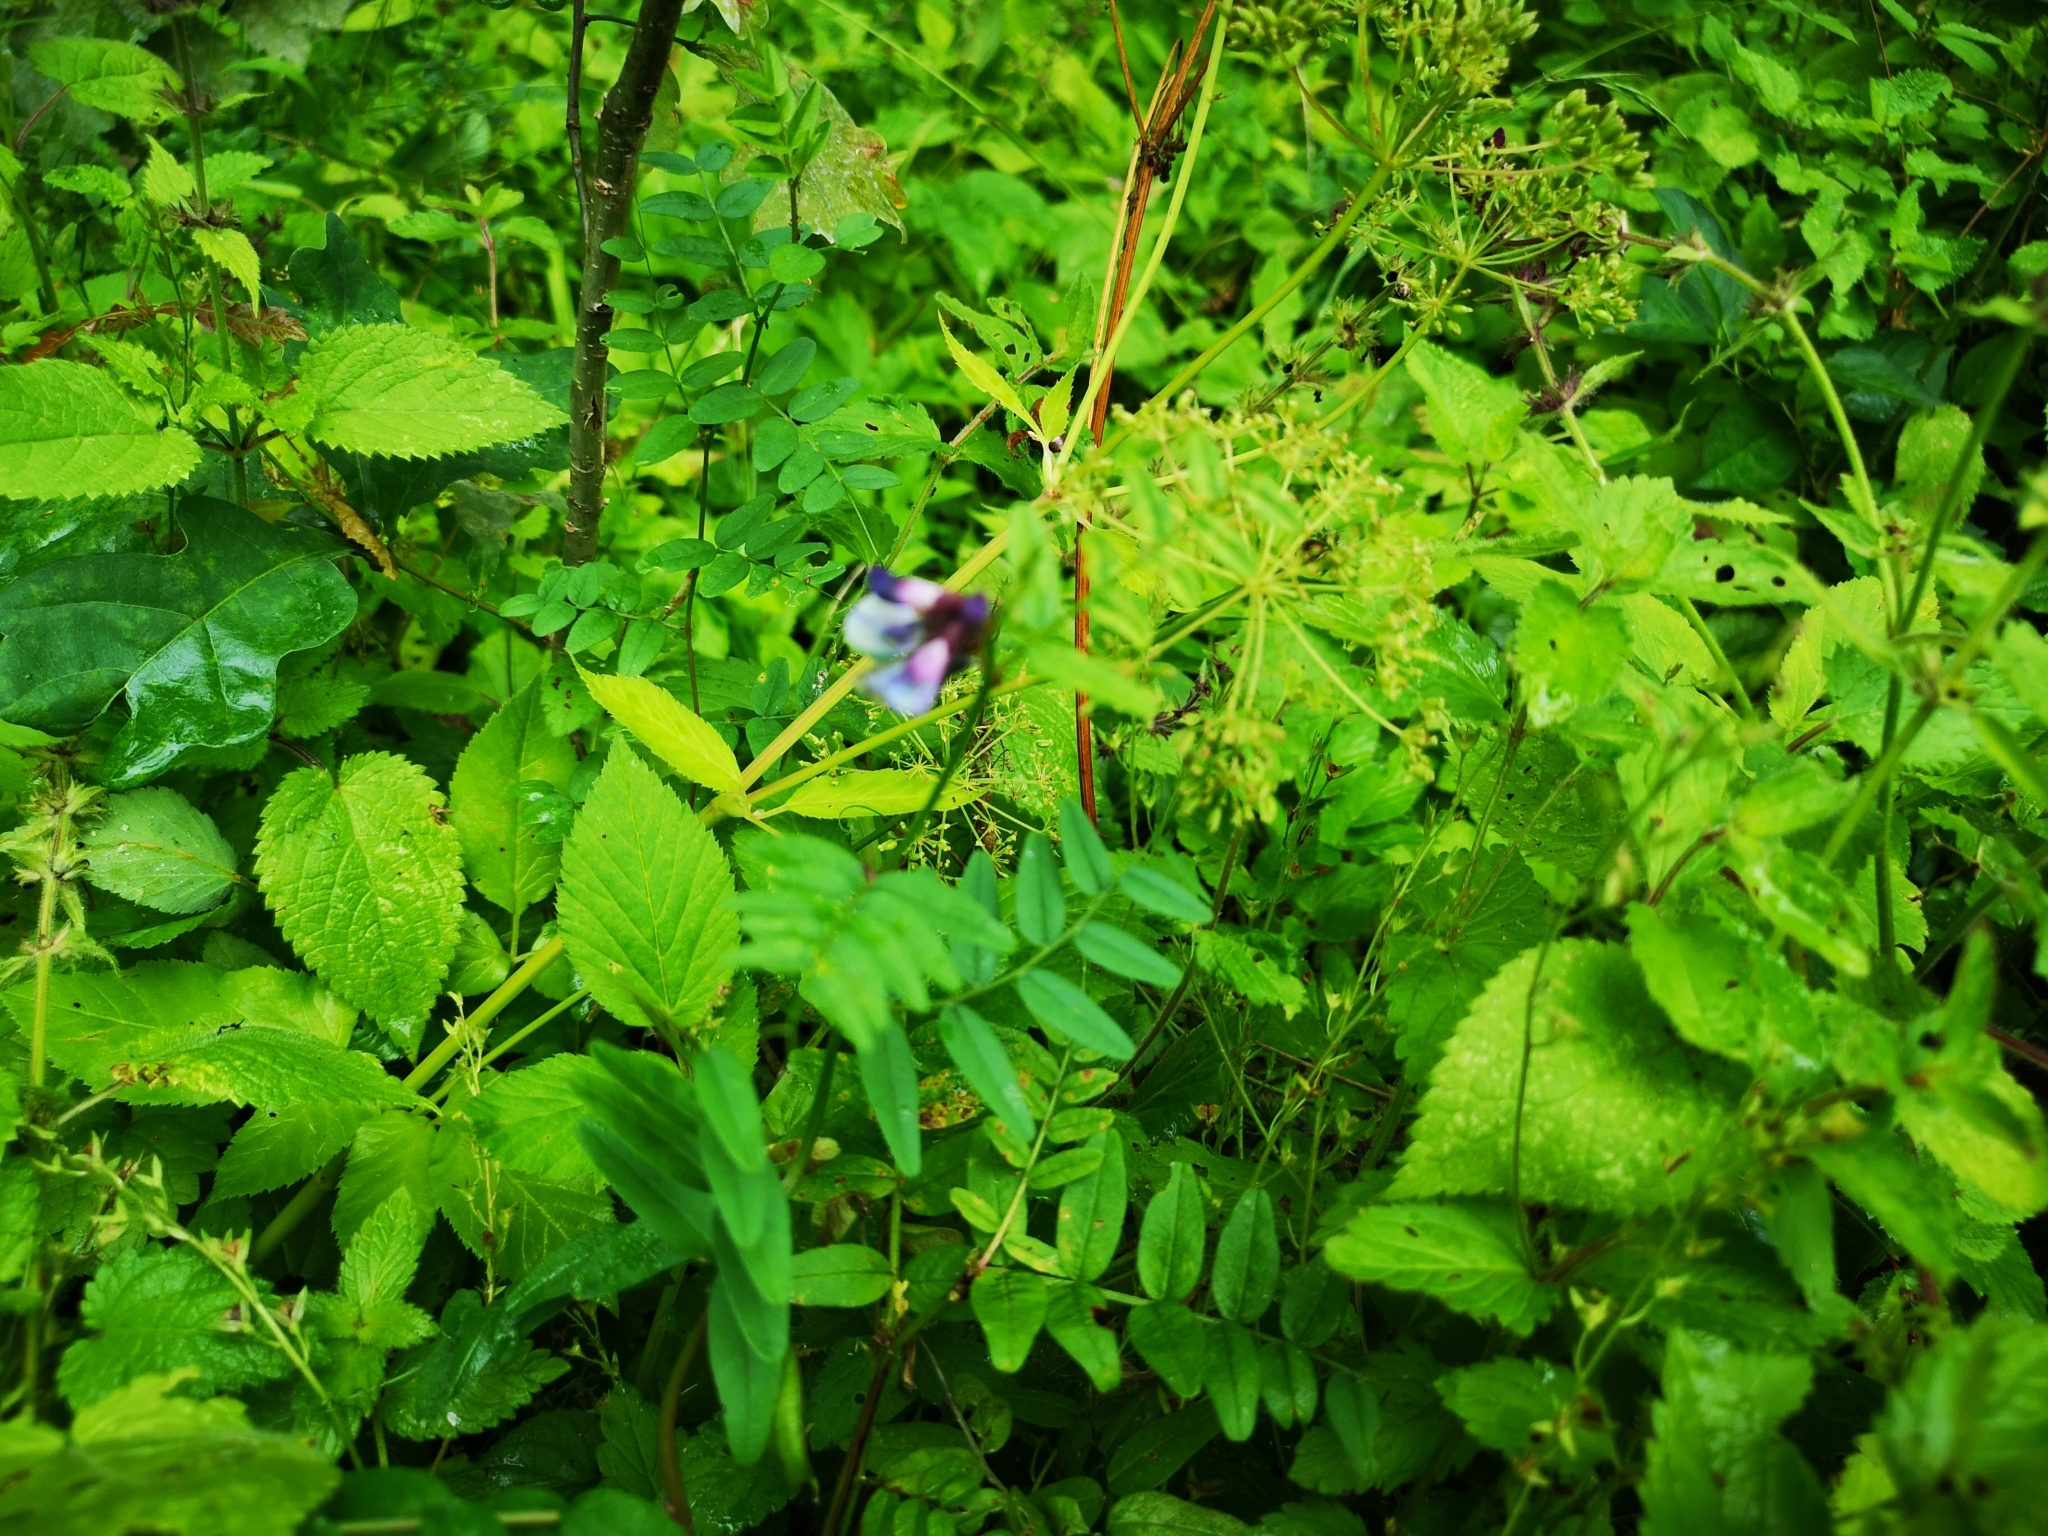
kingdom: Plantae
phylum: Tracheophyta
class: Magnoliopsida
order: Fabales
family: Fabaceae
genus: Vicia
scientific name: Vicia sepium
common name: Bush vetch
